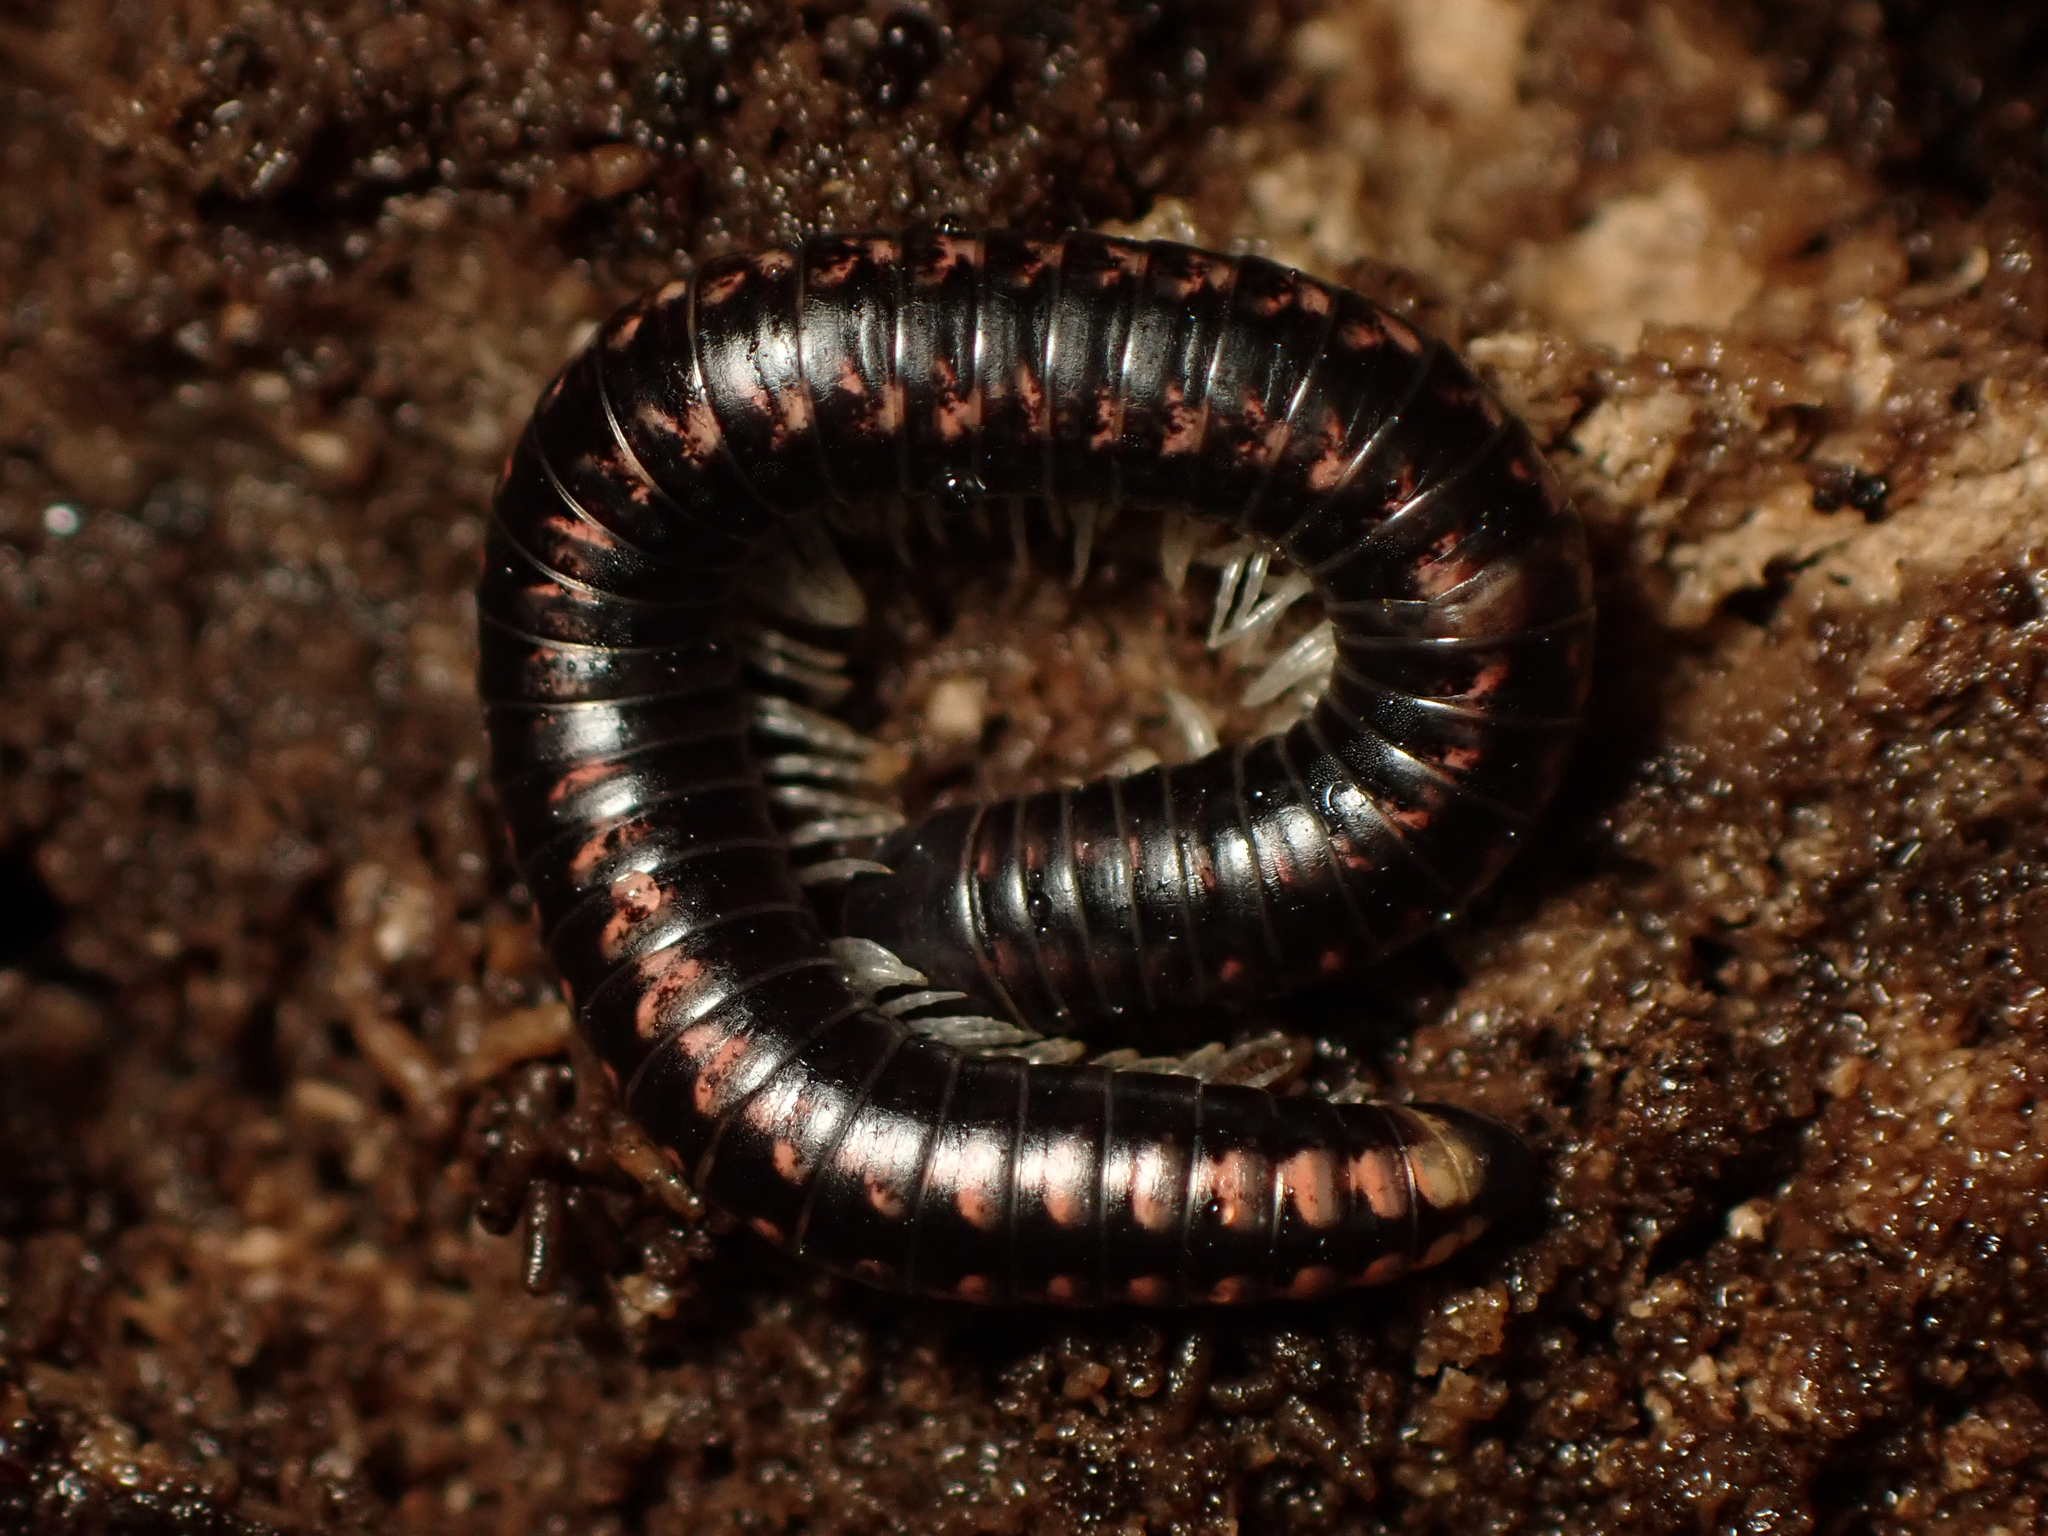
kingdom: Animalia
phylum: Arthropoda
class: Diplopoda
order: Spirobolida
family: Spirobolellidae
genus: Spirobolellus
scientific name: Spirobolellus antipodarum
